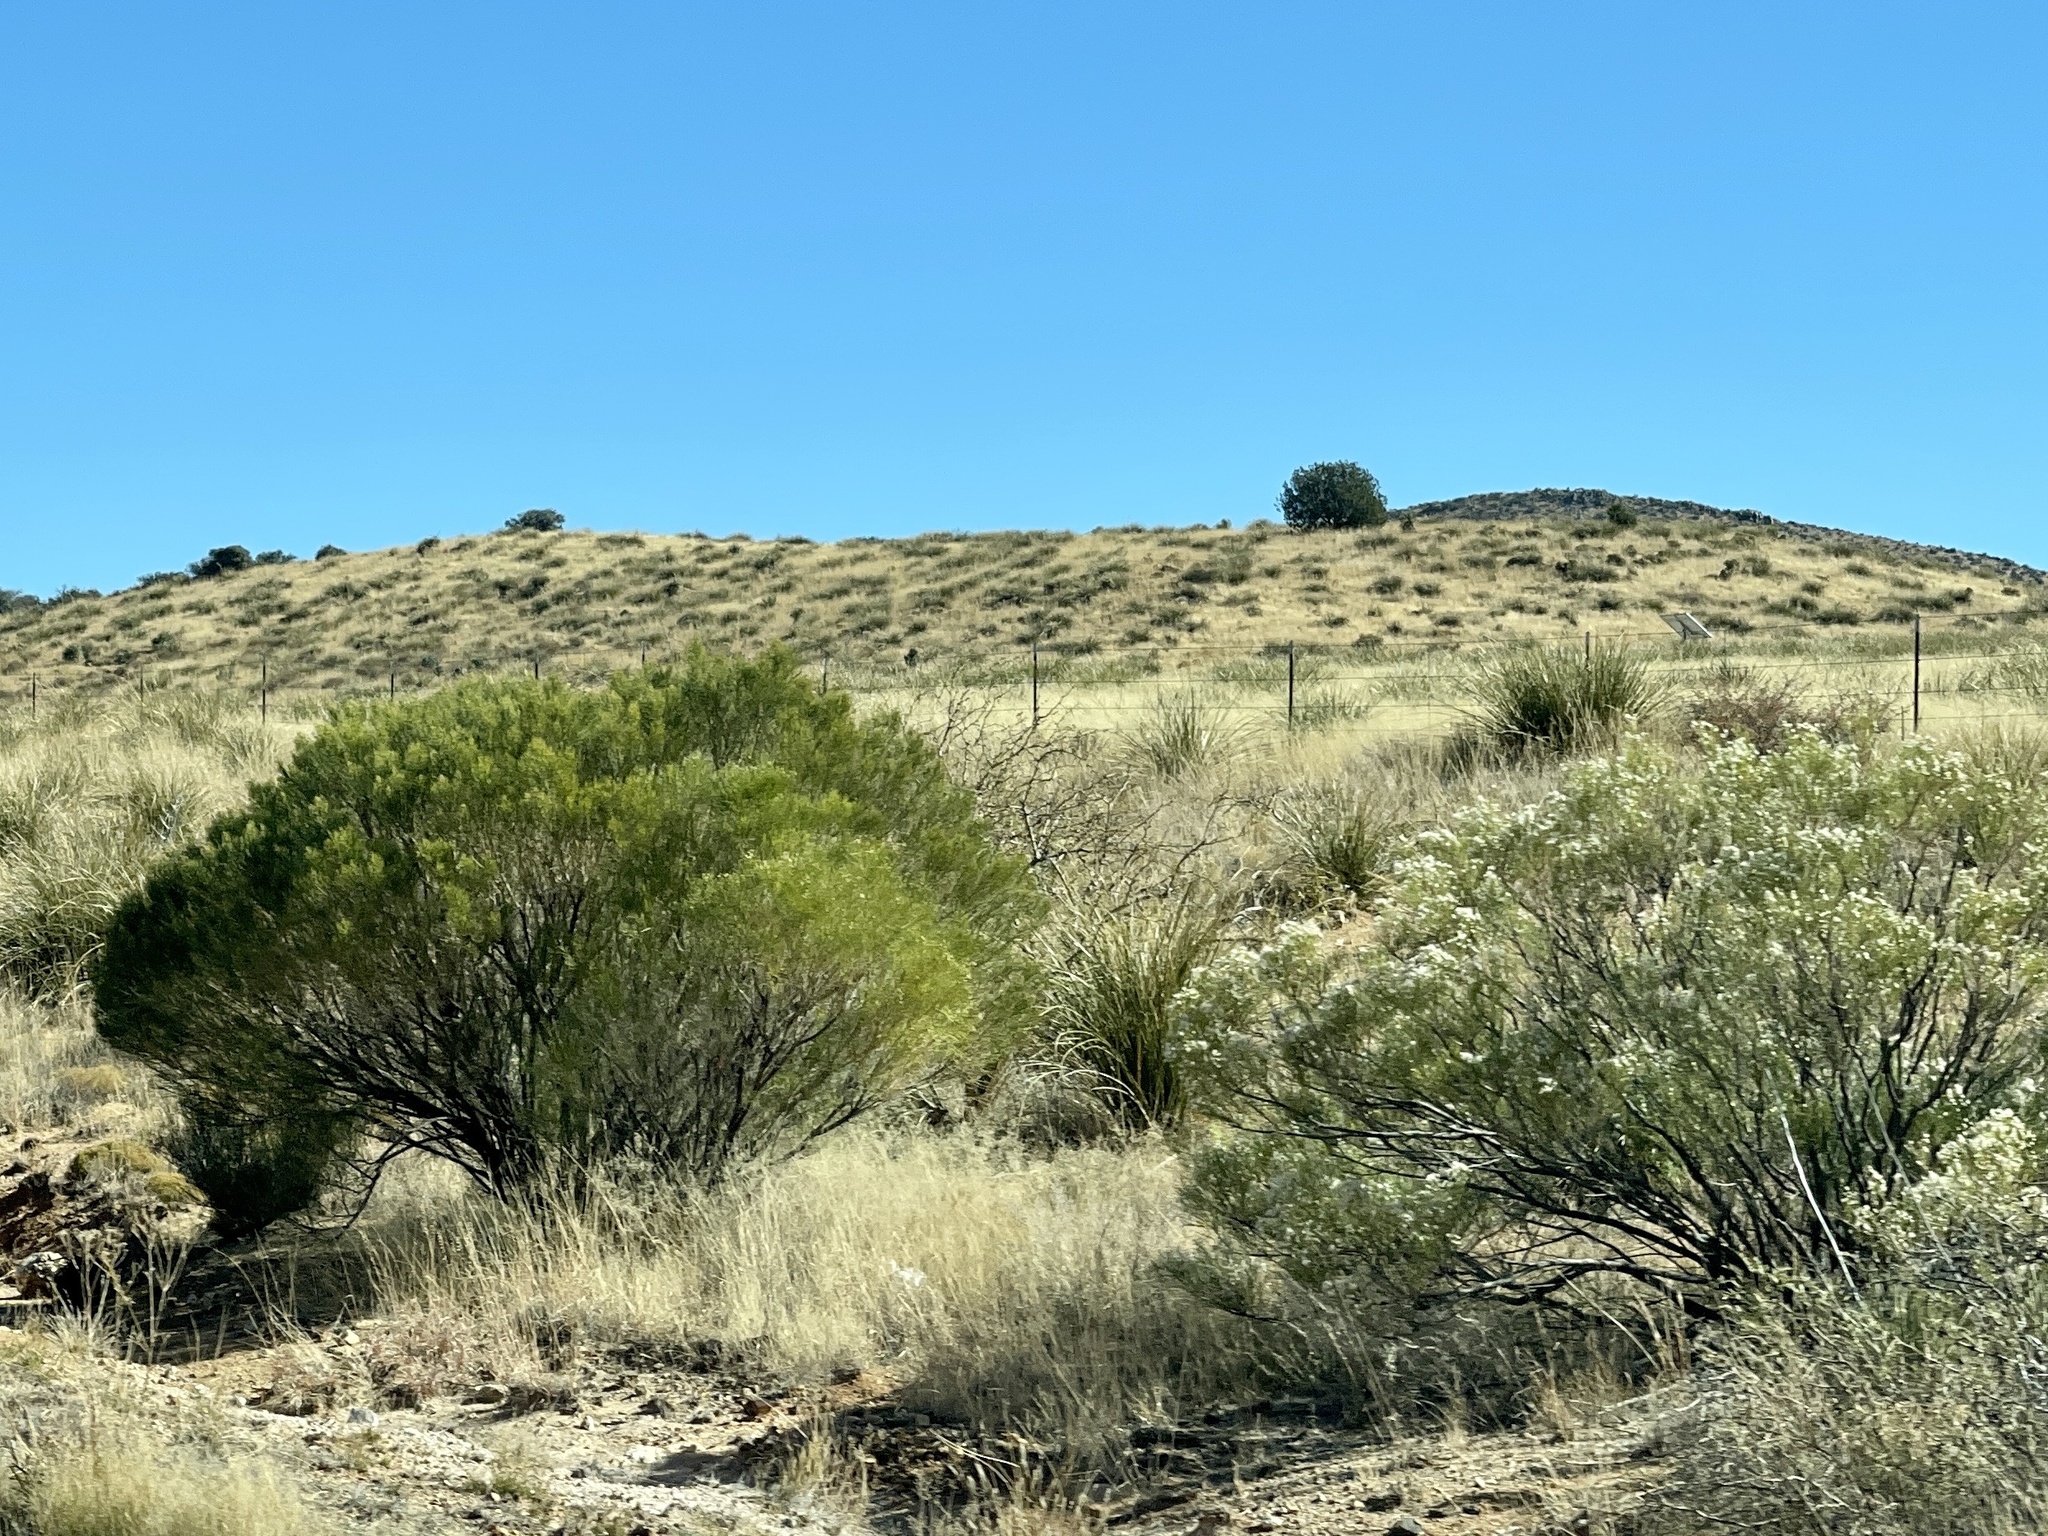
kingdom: Plantae
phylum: Tracheophyta
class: Magnoliopsida
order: Asterales
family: Asteraceae
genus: Baccharis
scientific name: Baccharis sarothroides
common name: Desert-broom
